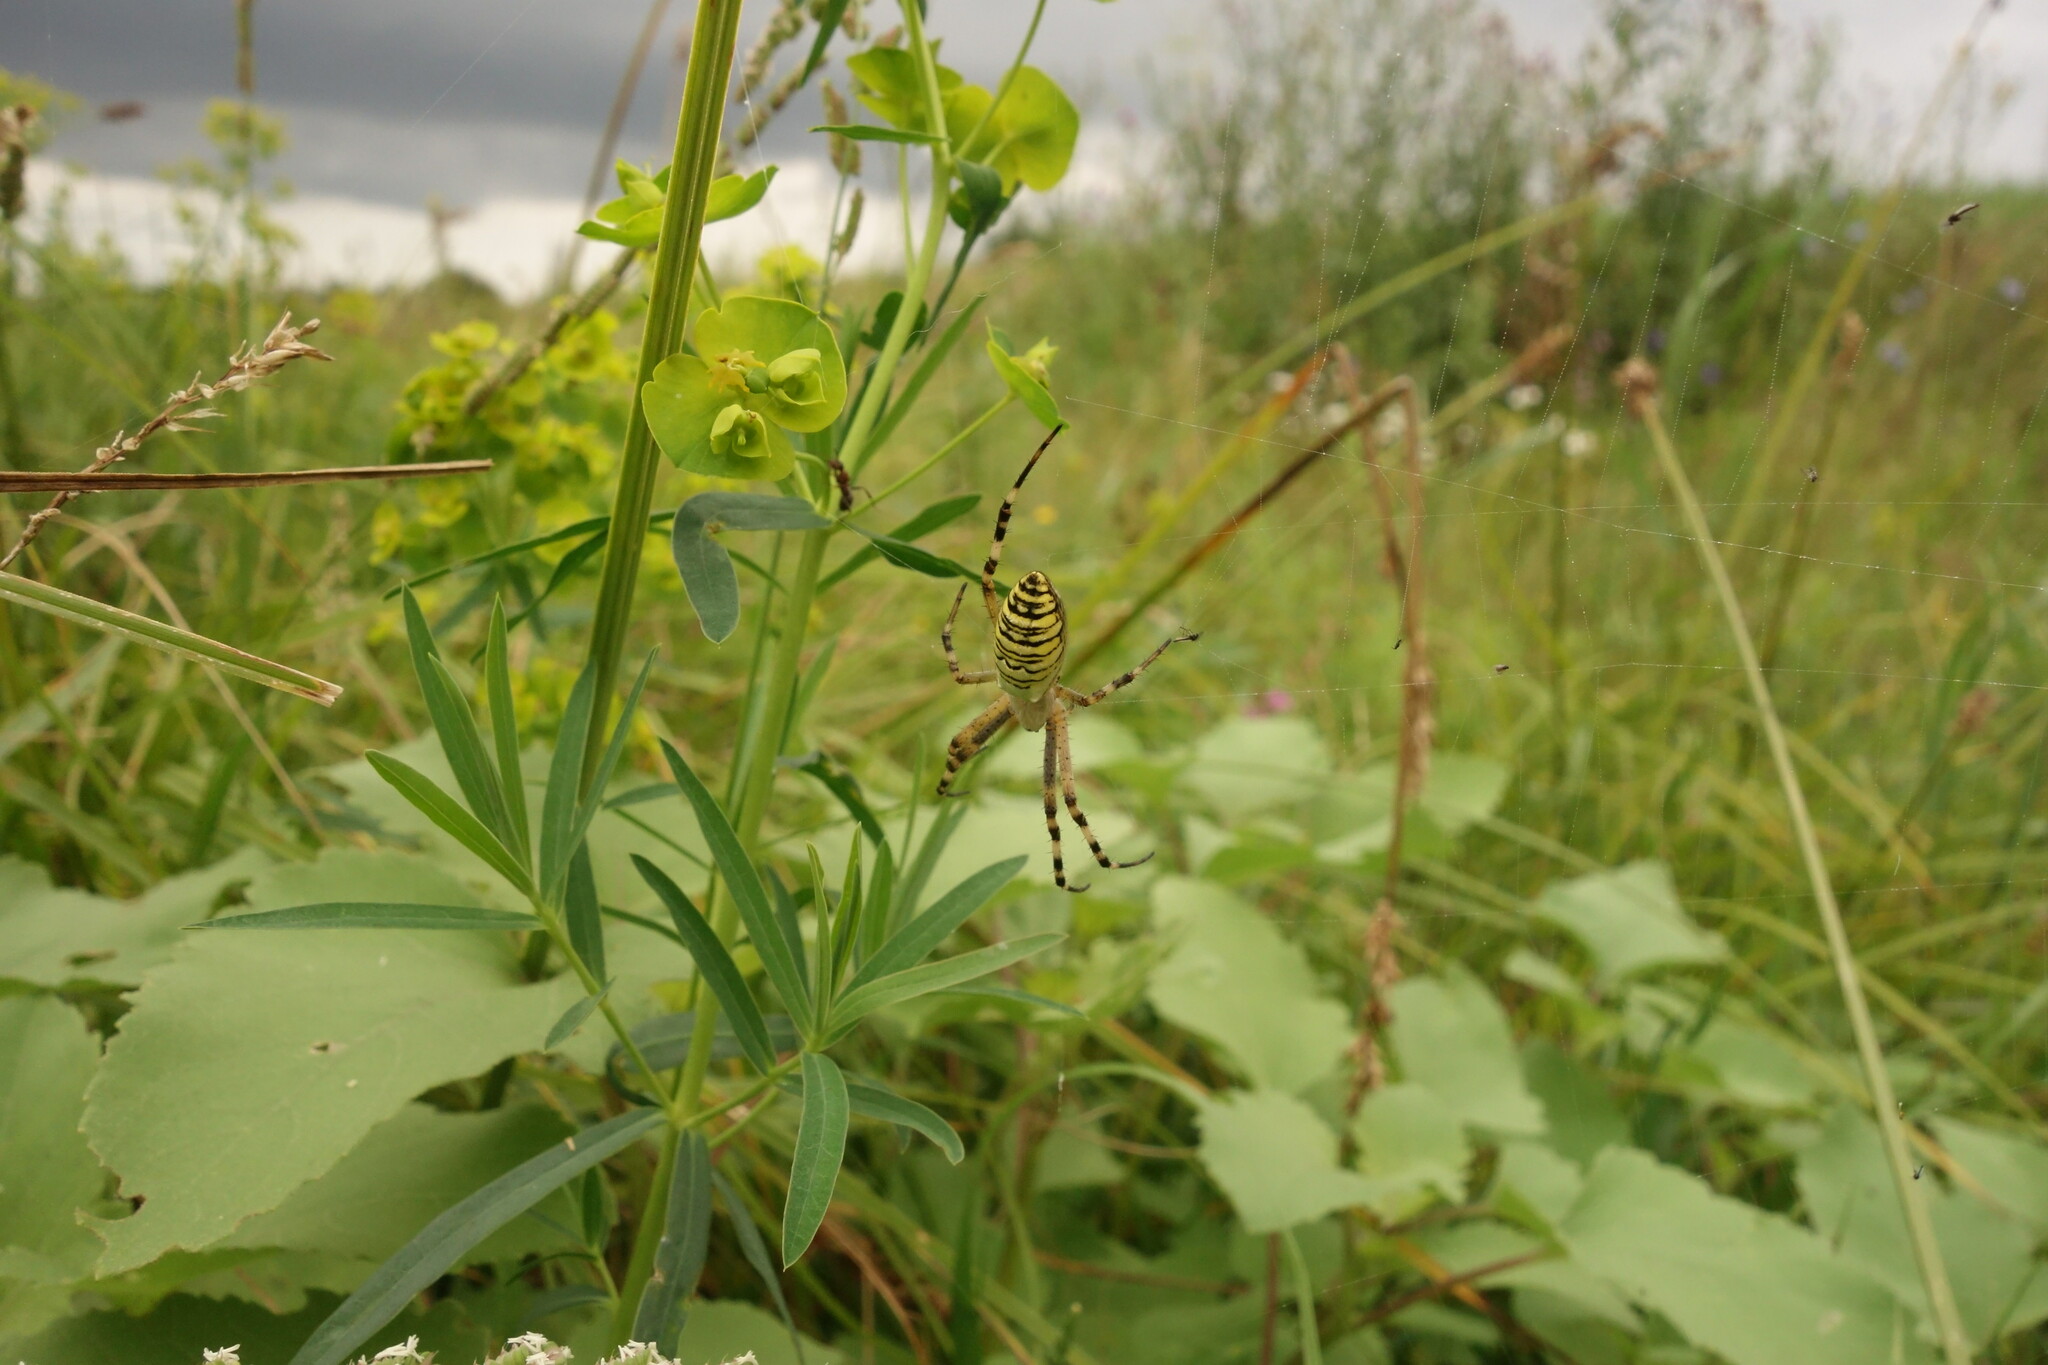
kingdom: Animalia
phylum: Arthropoda
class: Arachnida
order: Araneae
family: Araneidae
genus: Argiope
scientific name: Argiope bruennichi
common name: Wasp spider
